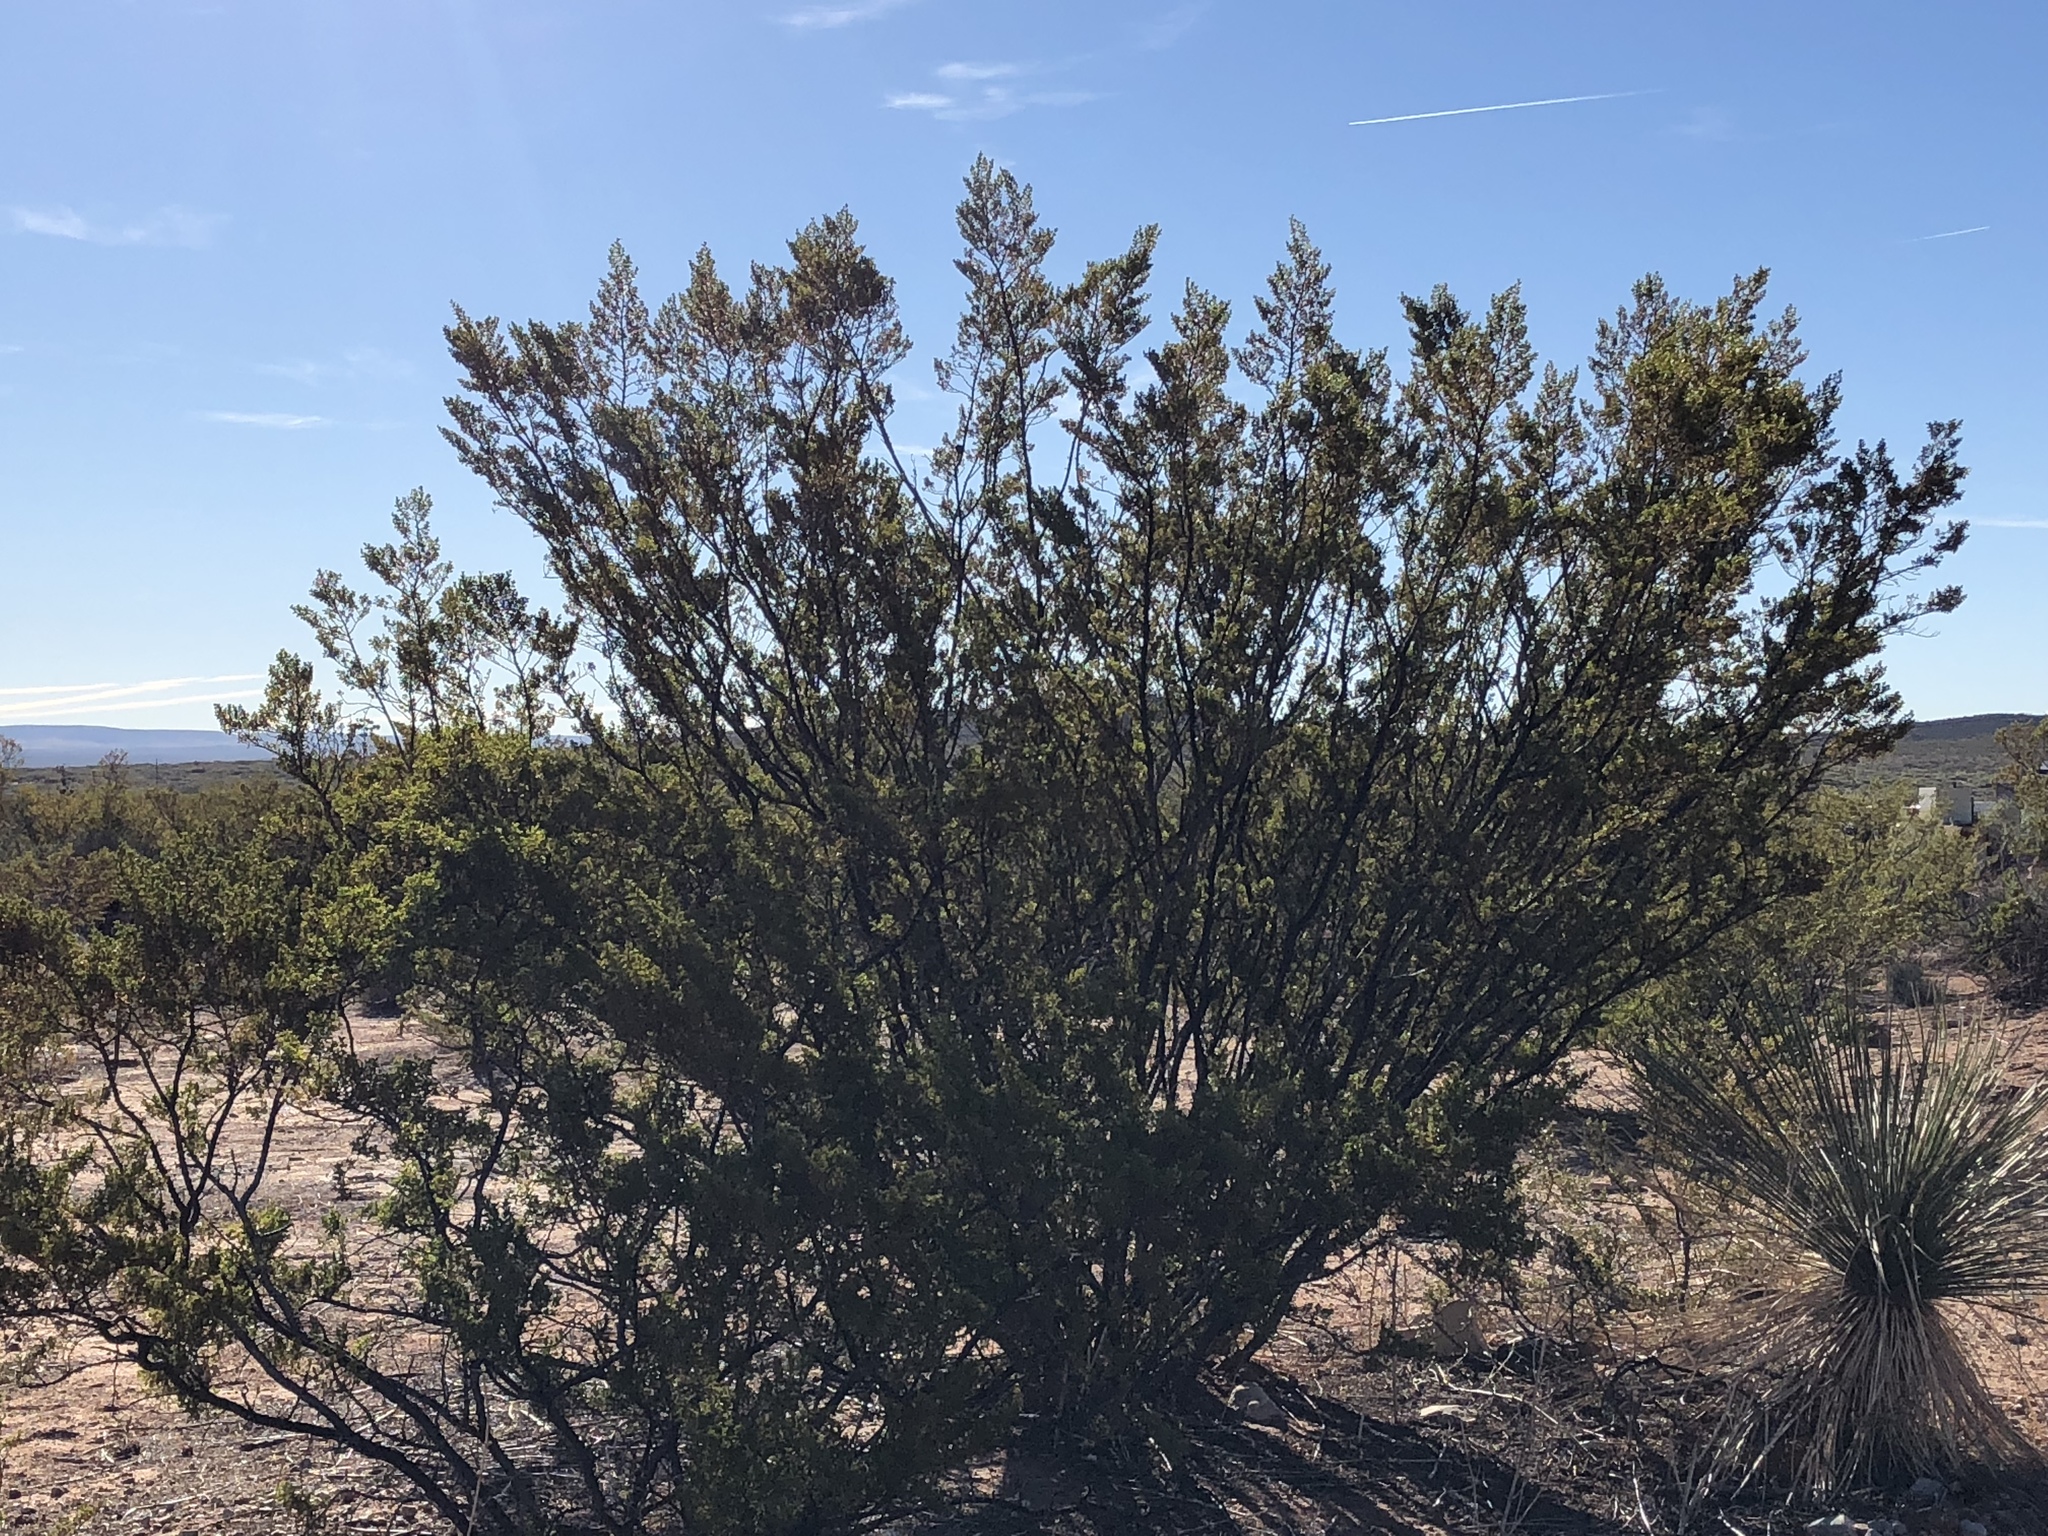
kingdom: Plantae
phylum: Tracheophyta
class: Magnoliopsida
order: Zygophyllales
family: Zygophyllaceae
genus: Larrea
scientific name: Larrea tridentata
